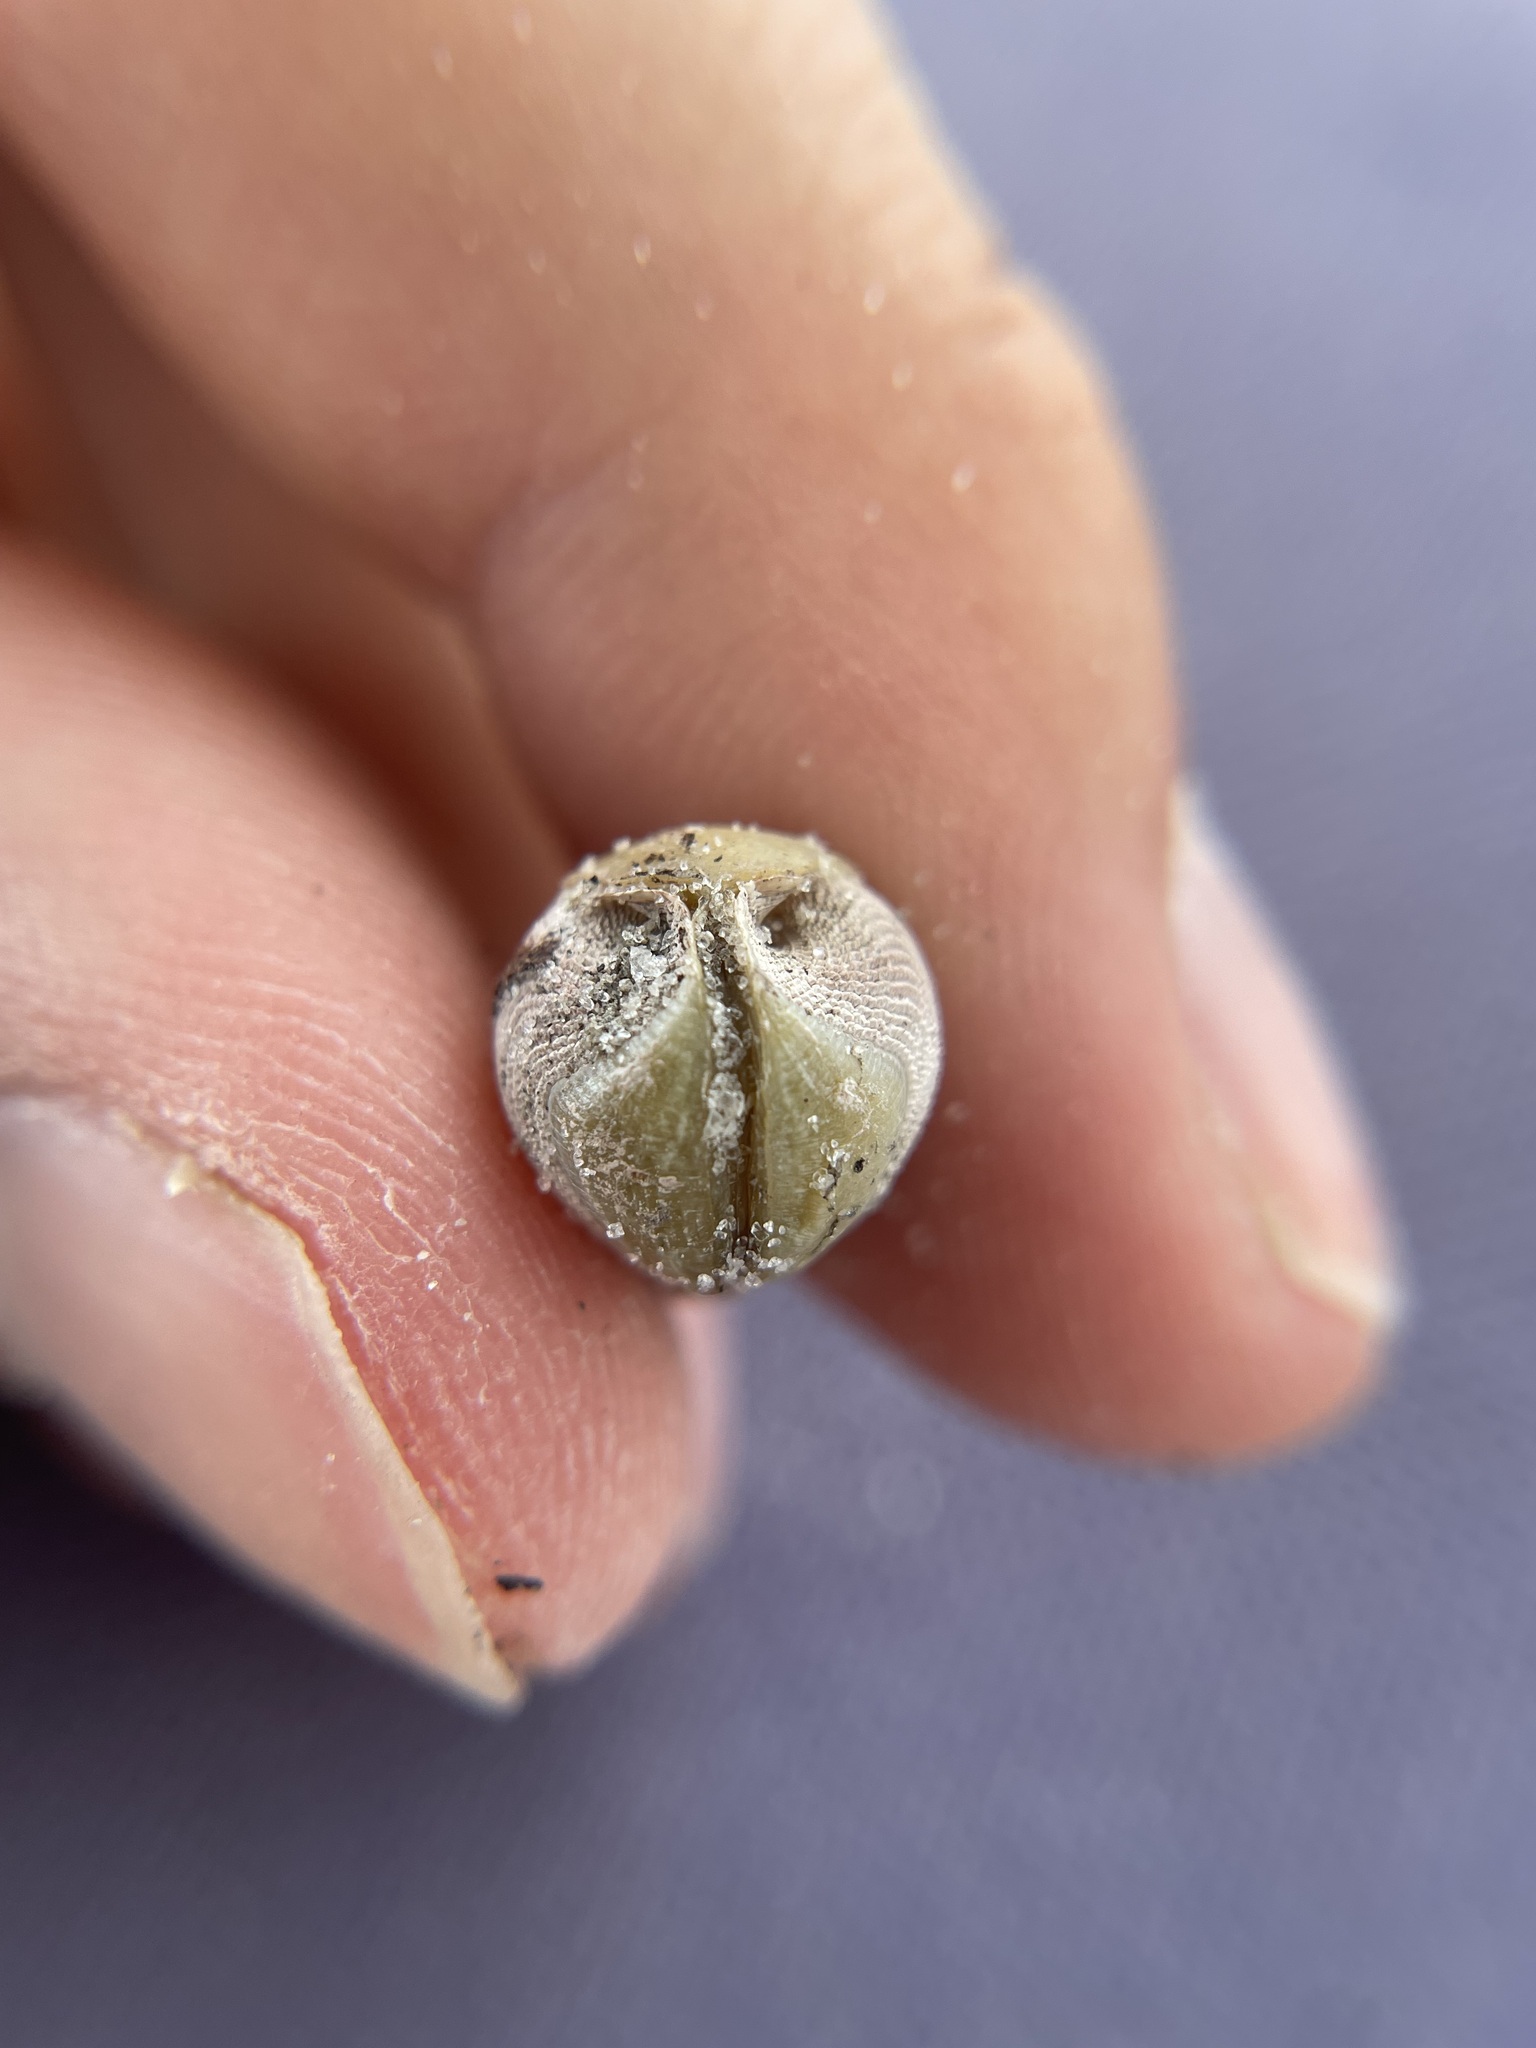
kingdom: Animalia
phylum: Mollusca
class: Bivalvia
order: Myida
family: Pholadidae
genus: Martesia
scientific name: Martesia striata
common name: Striate piddock
